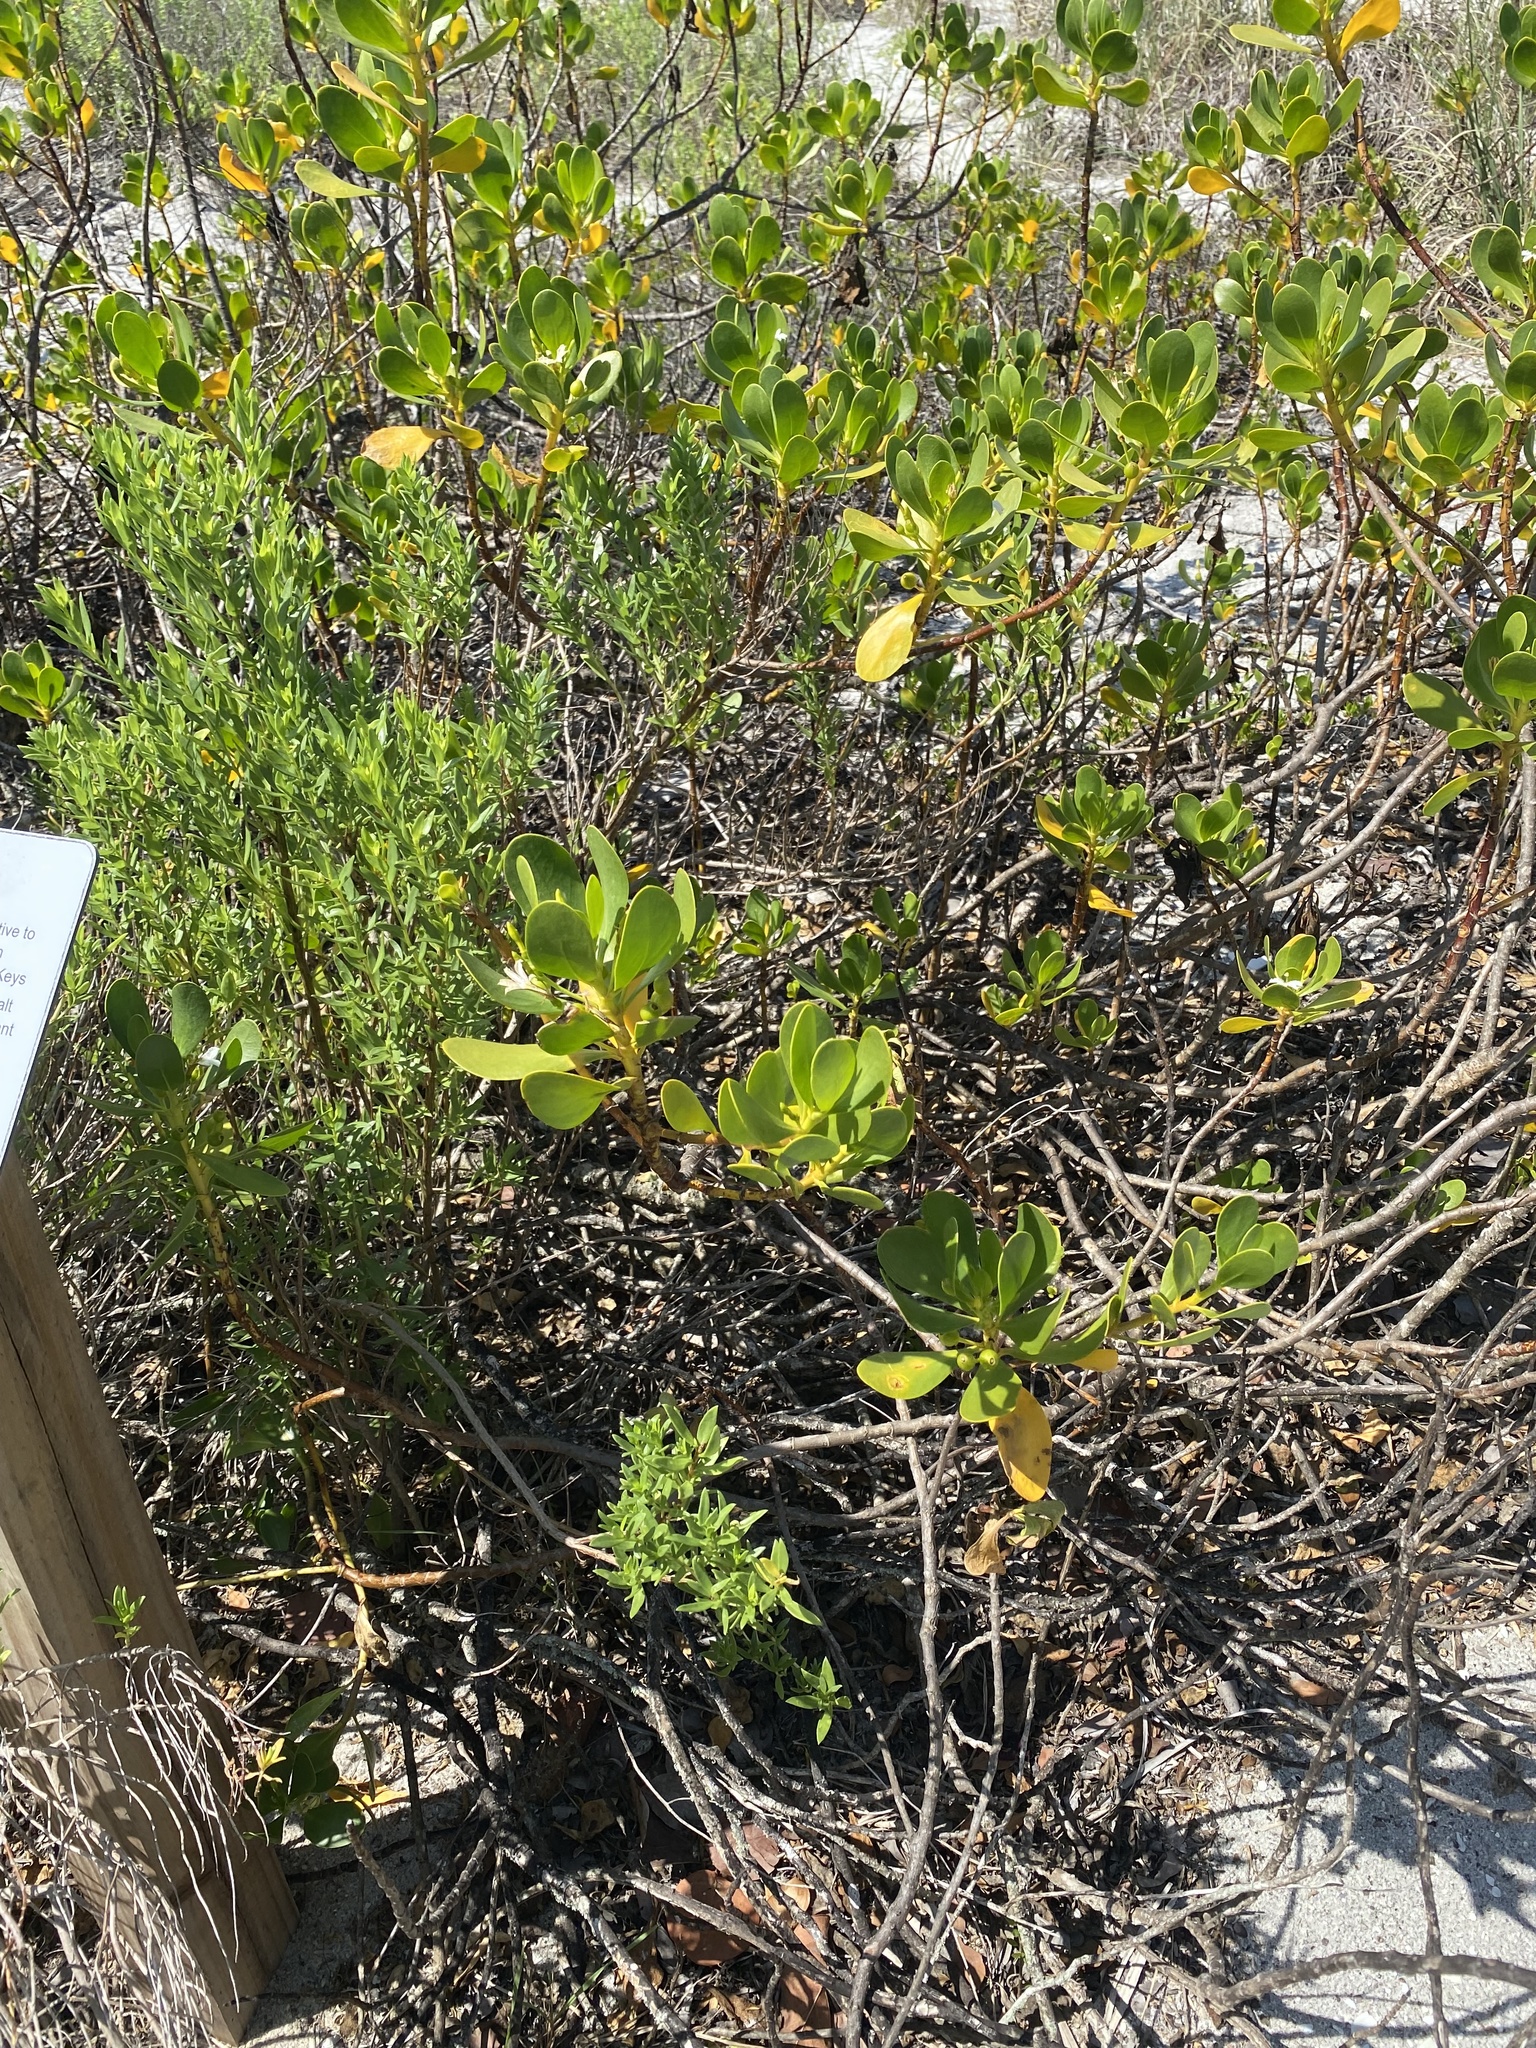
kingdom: Plantae
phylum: Tracheophyta
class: Magnoliopsida
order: Asterales
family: Goodeniaceae
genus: Scaevola
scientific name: Scaevola plumieri
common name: Gull feed
